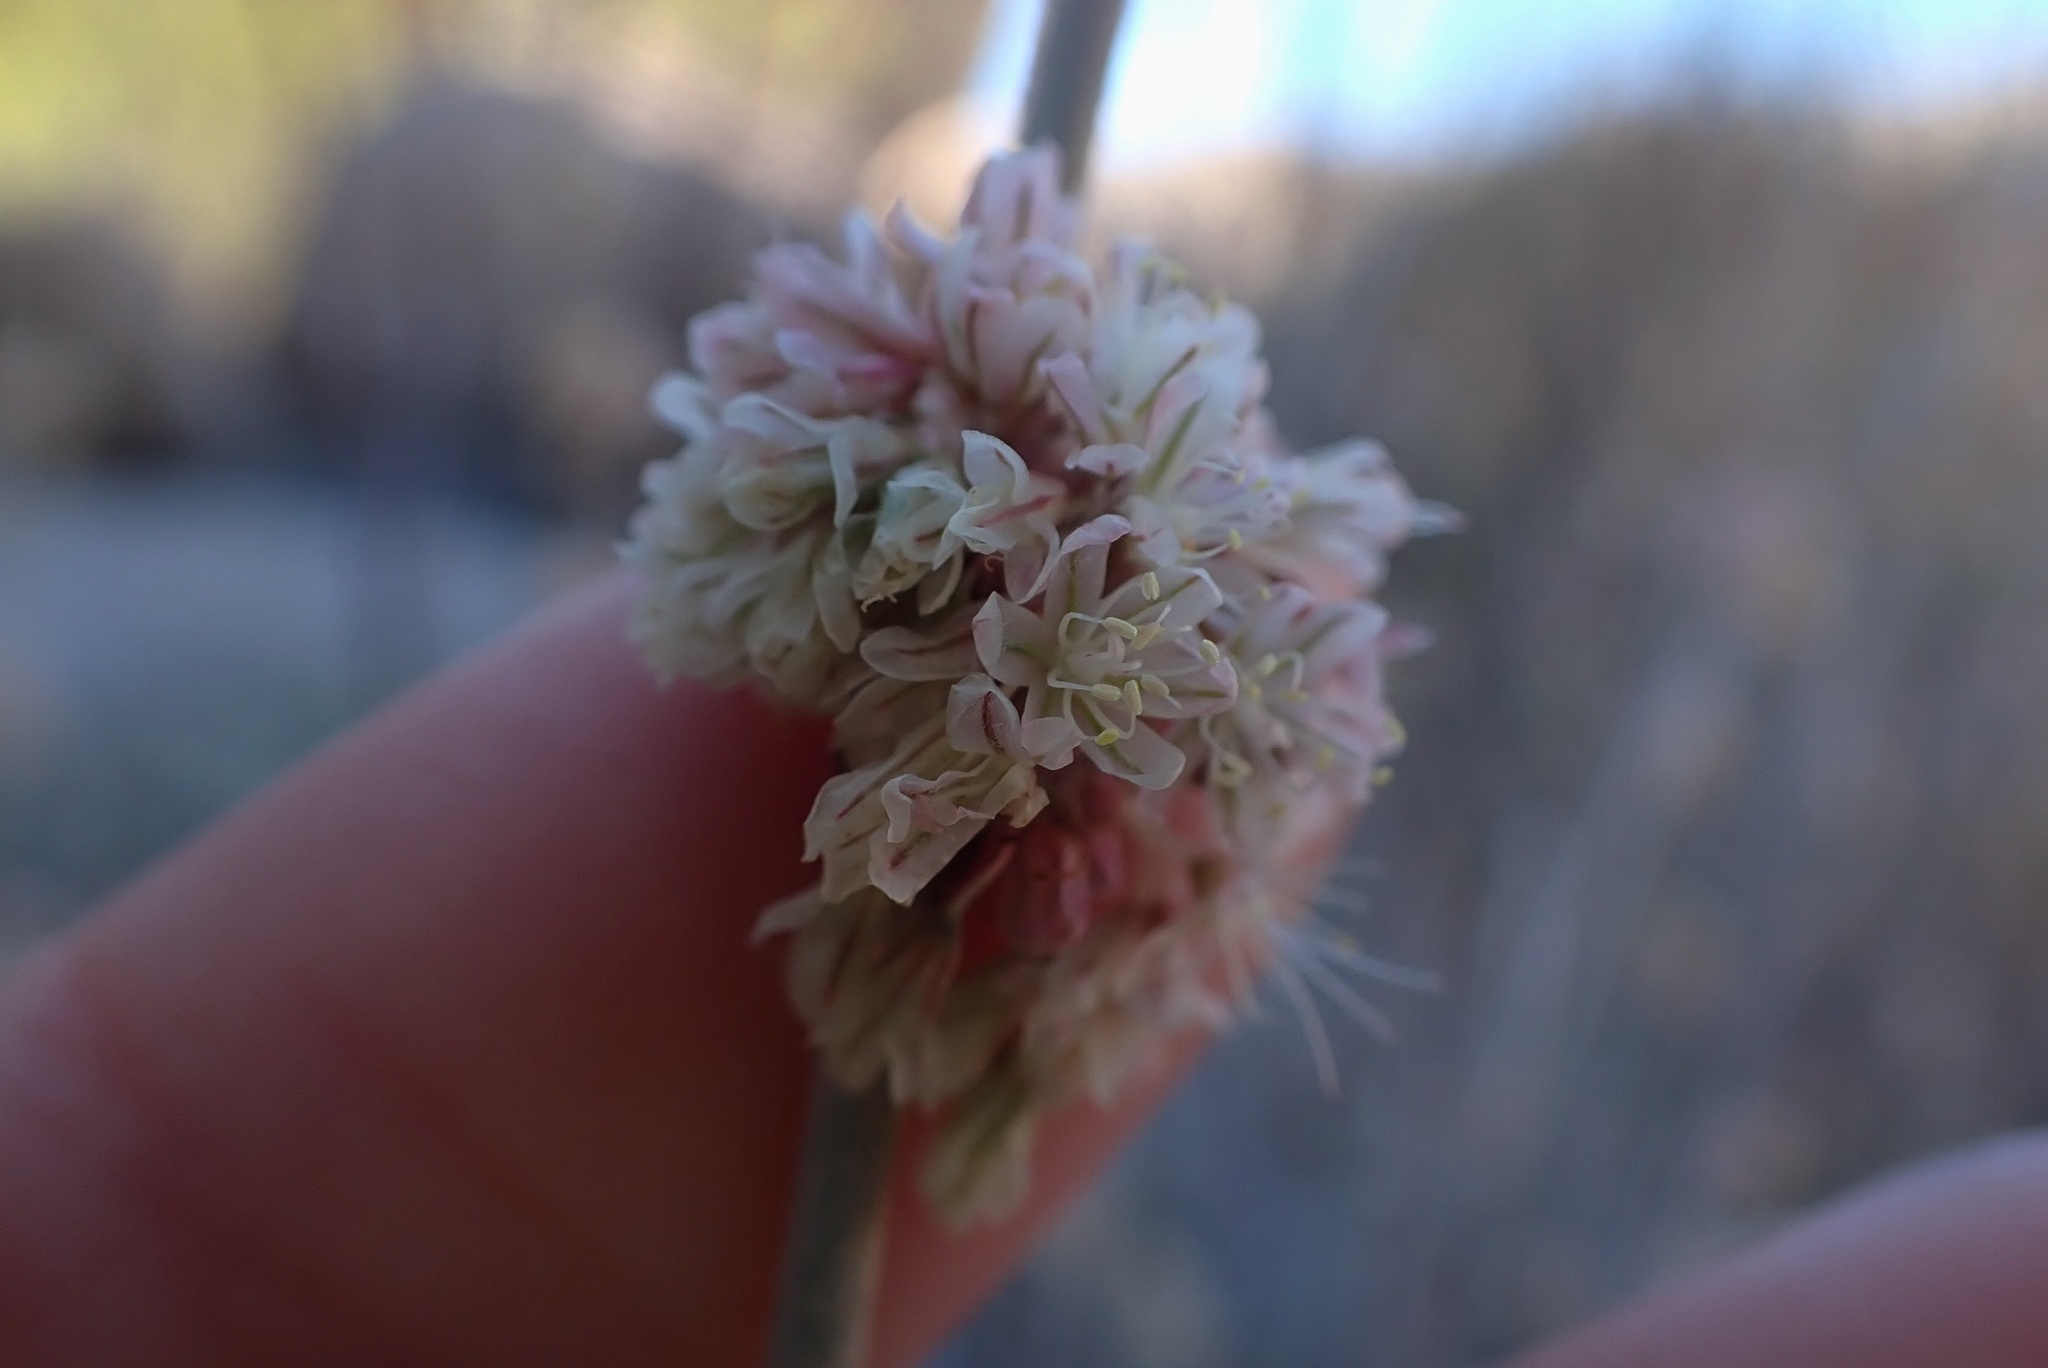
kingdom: Plantae
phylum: Tracheophyta
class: Magnoliopsida
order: Caryophyllales
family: Polygonaceae
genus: Eriogonum
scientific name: Eriogonum elongatum
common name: Long-stem wild buckwheat
